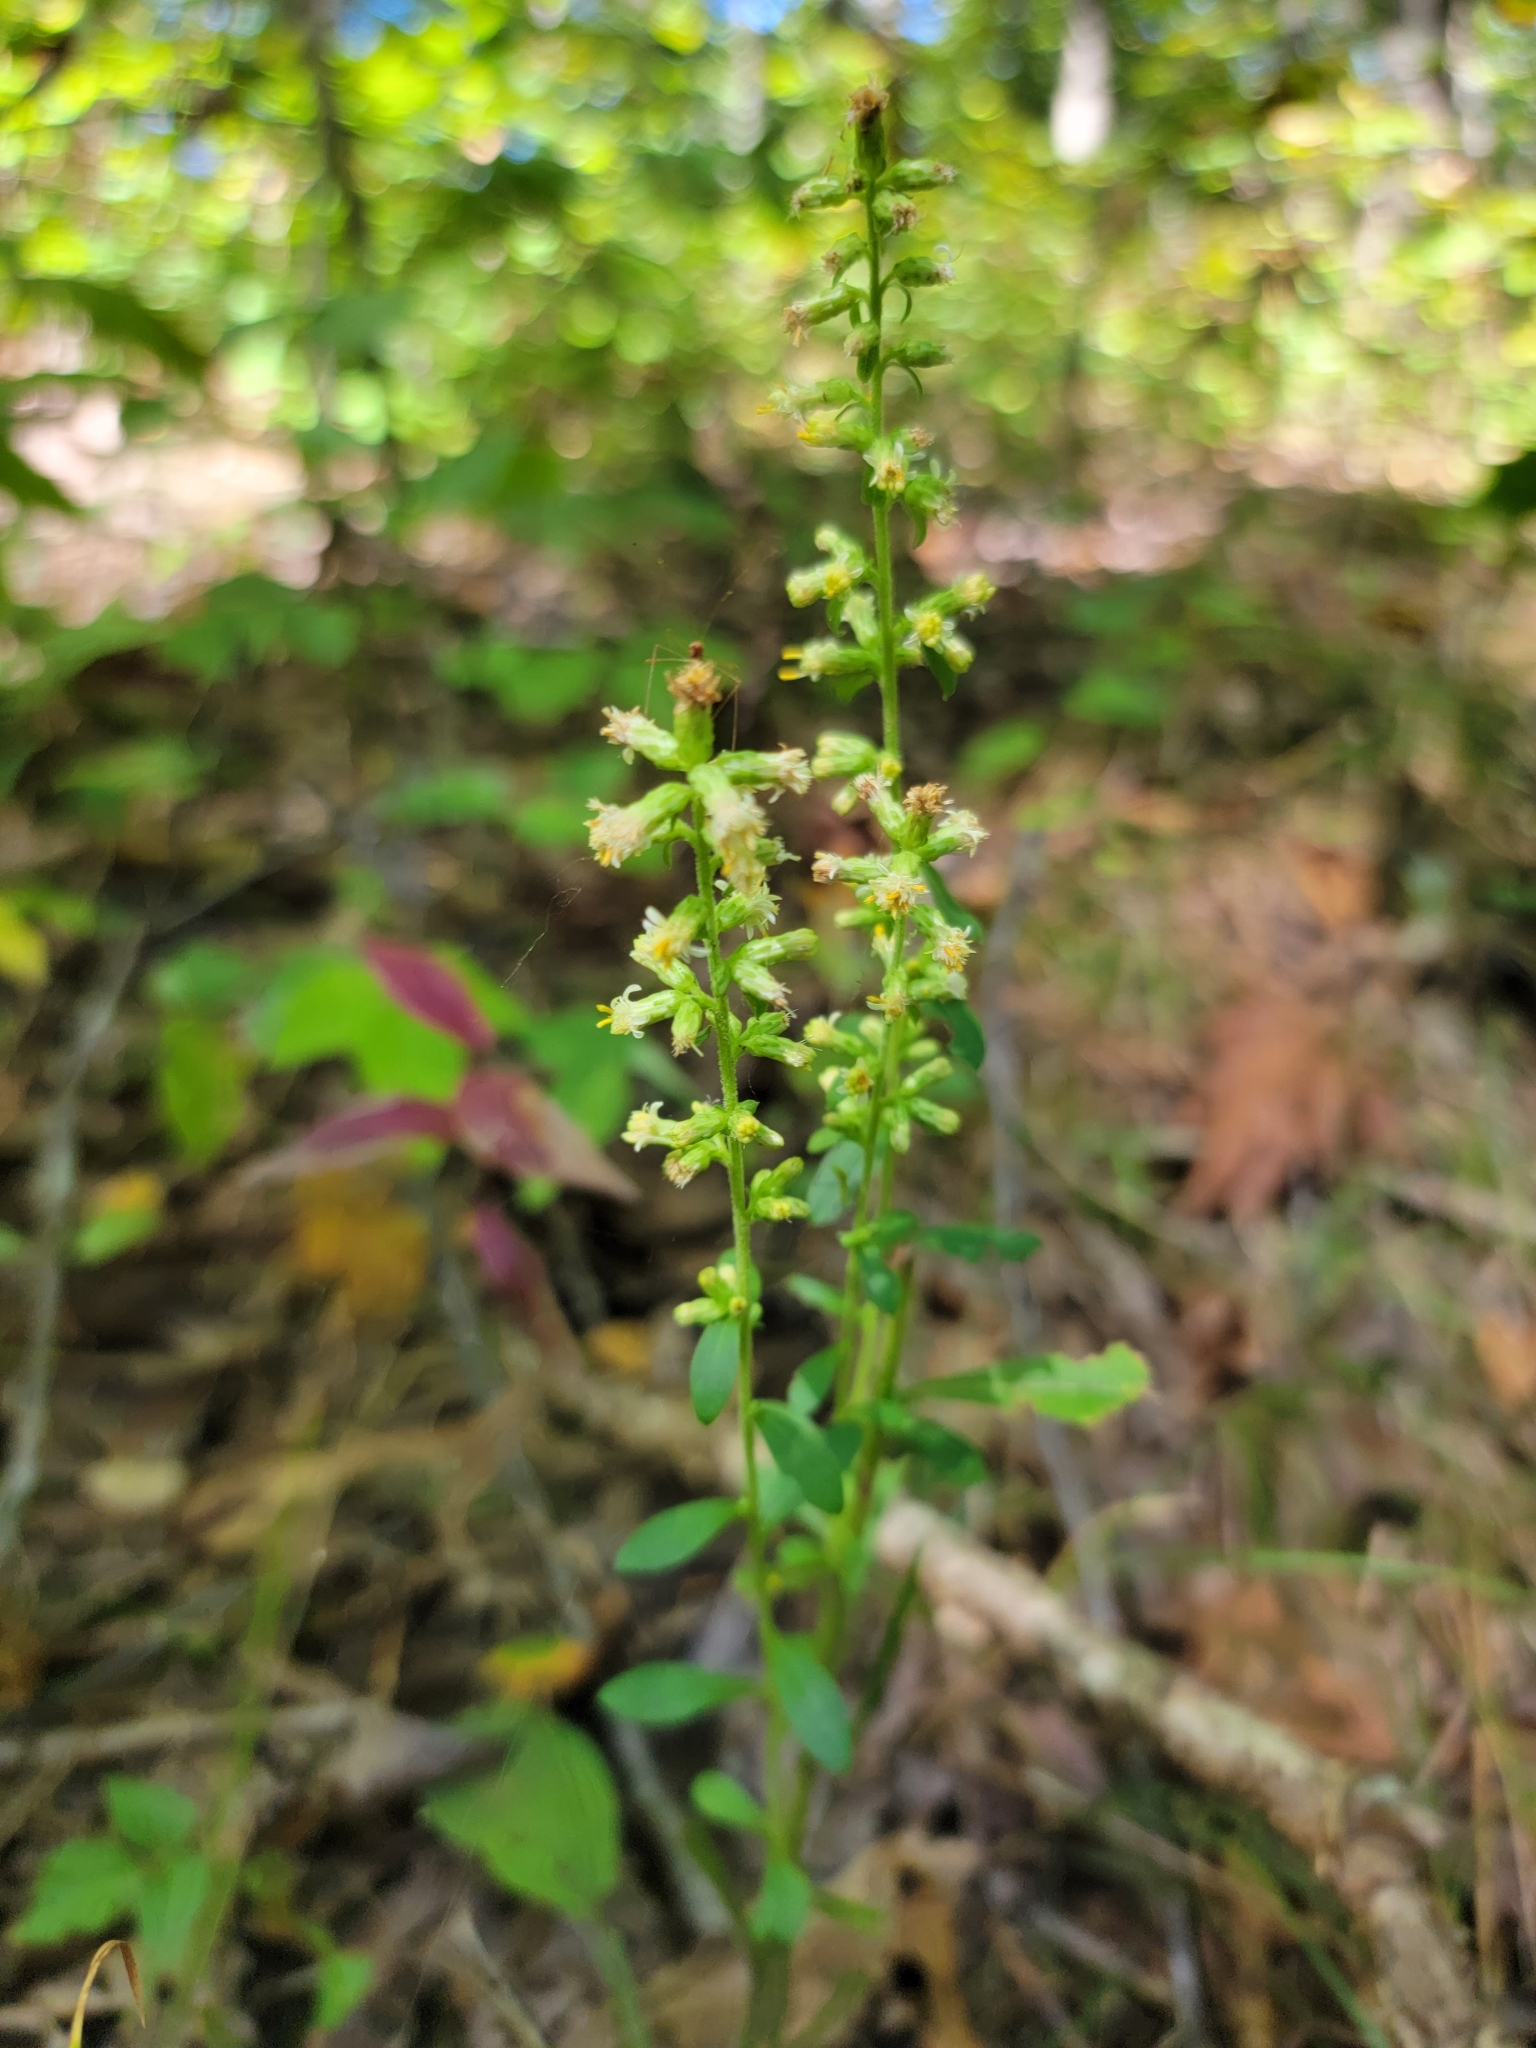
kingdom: Plantae
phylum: Tracheophyta
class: Magnoliopsida
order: Asterales
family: Asteraceae
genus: Solidago
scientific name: Solidago bicolor
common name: Silverrod
